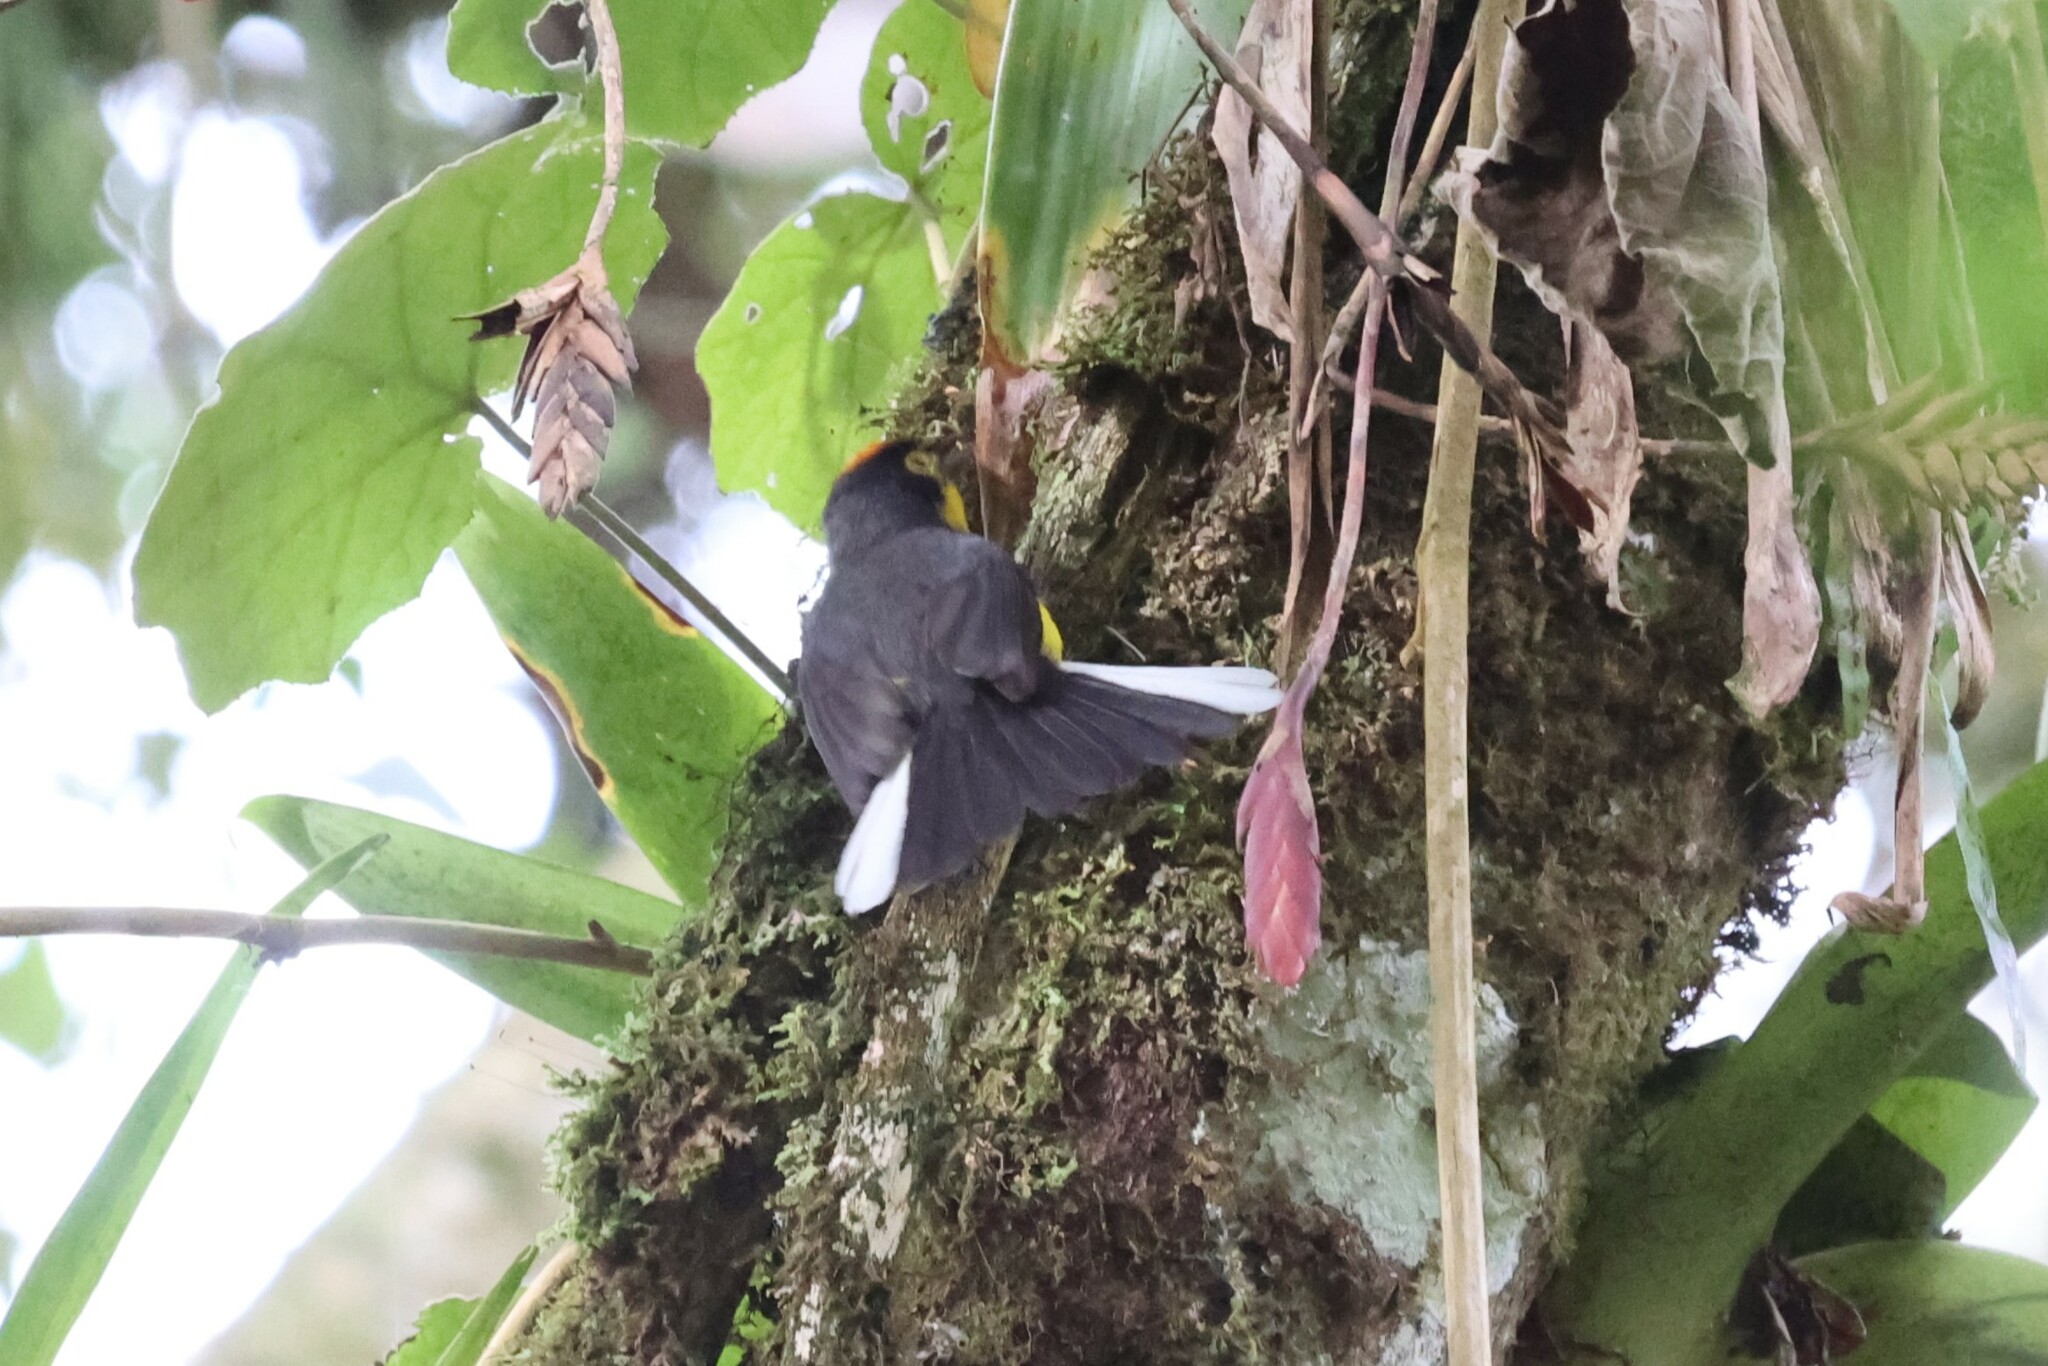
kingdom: Animalia
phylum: Chordata
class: Aves
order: Passeriformes
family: Parulidae
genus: Myioborus
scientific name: Myioborus melanocephalus
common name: Spectacled whitestart
